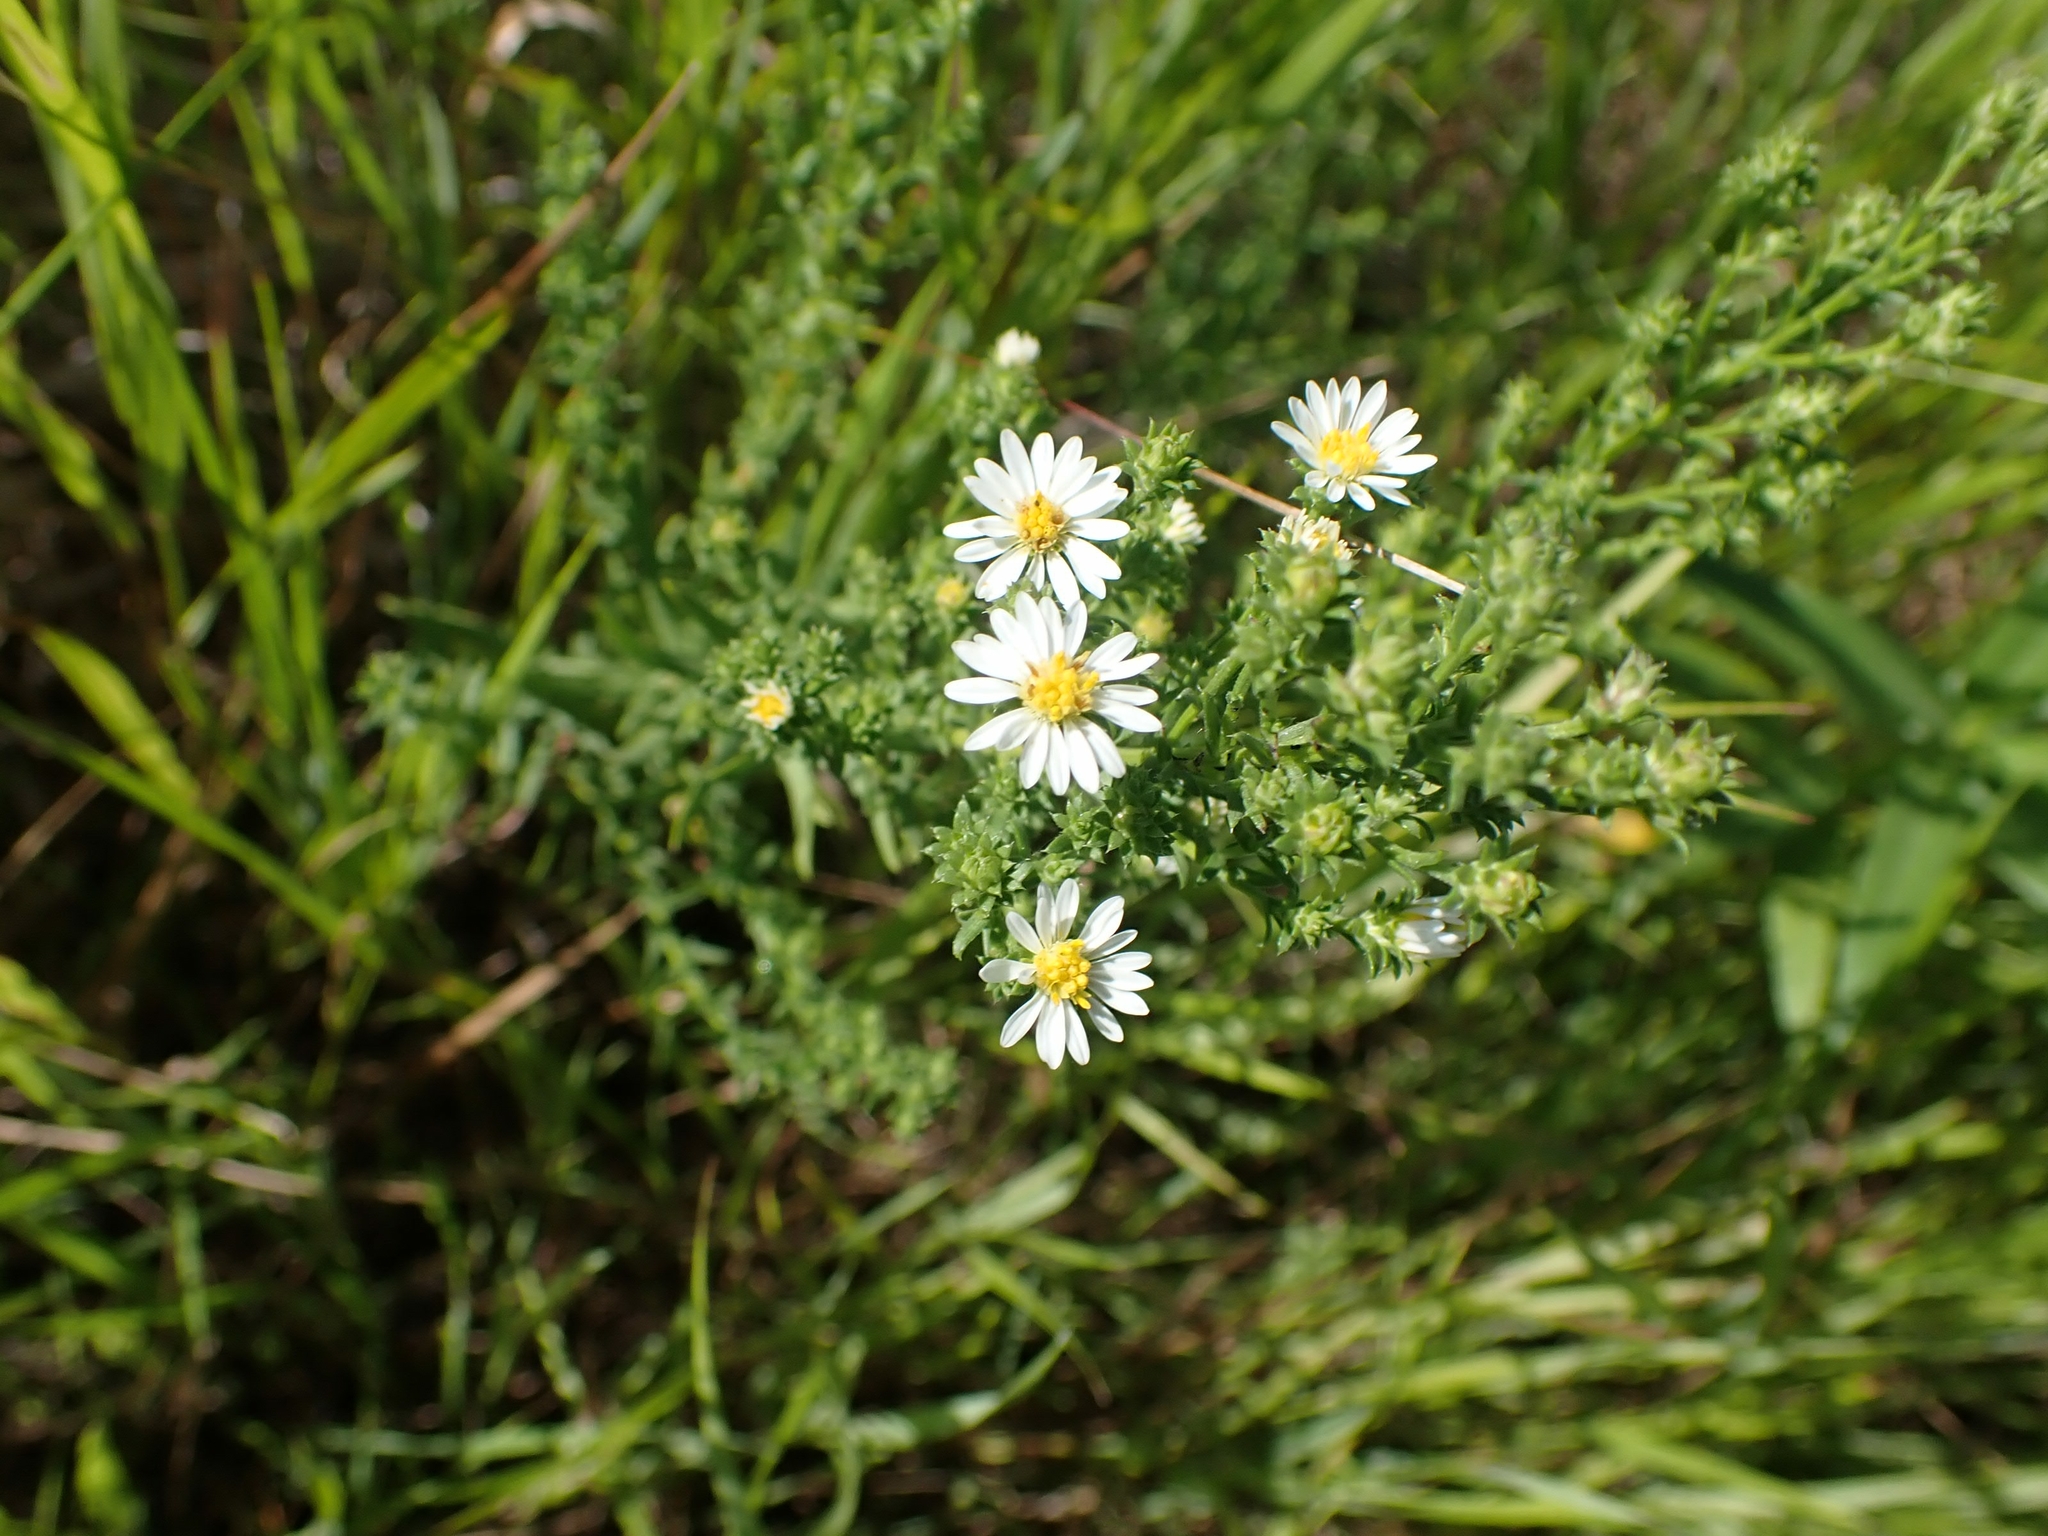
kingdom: Plantae
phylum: Tracheophyta
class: Magnoliopsida
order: Asterales
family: Asteraceae
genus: Symphyotrichum
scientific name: Symphyotrichum ericoides
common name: Heath aster
